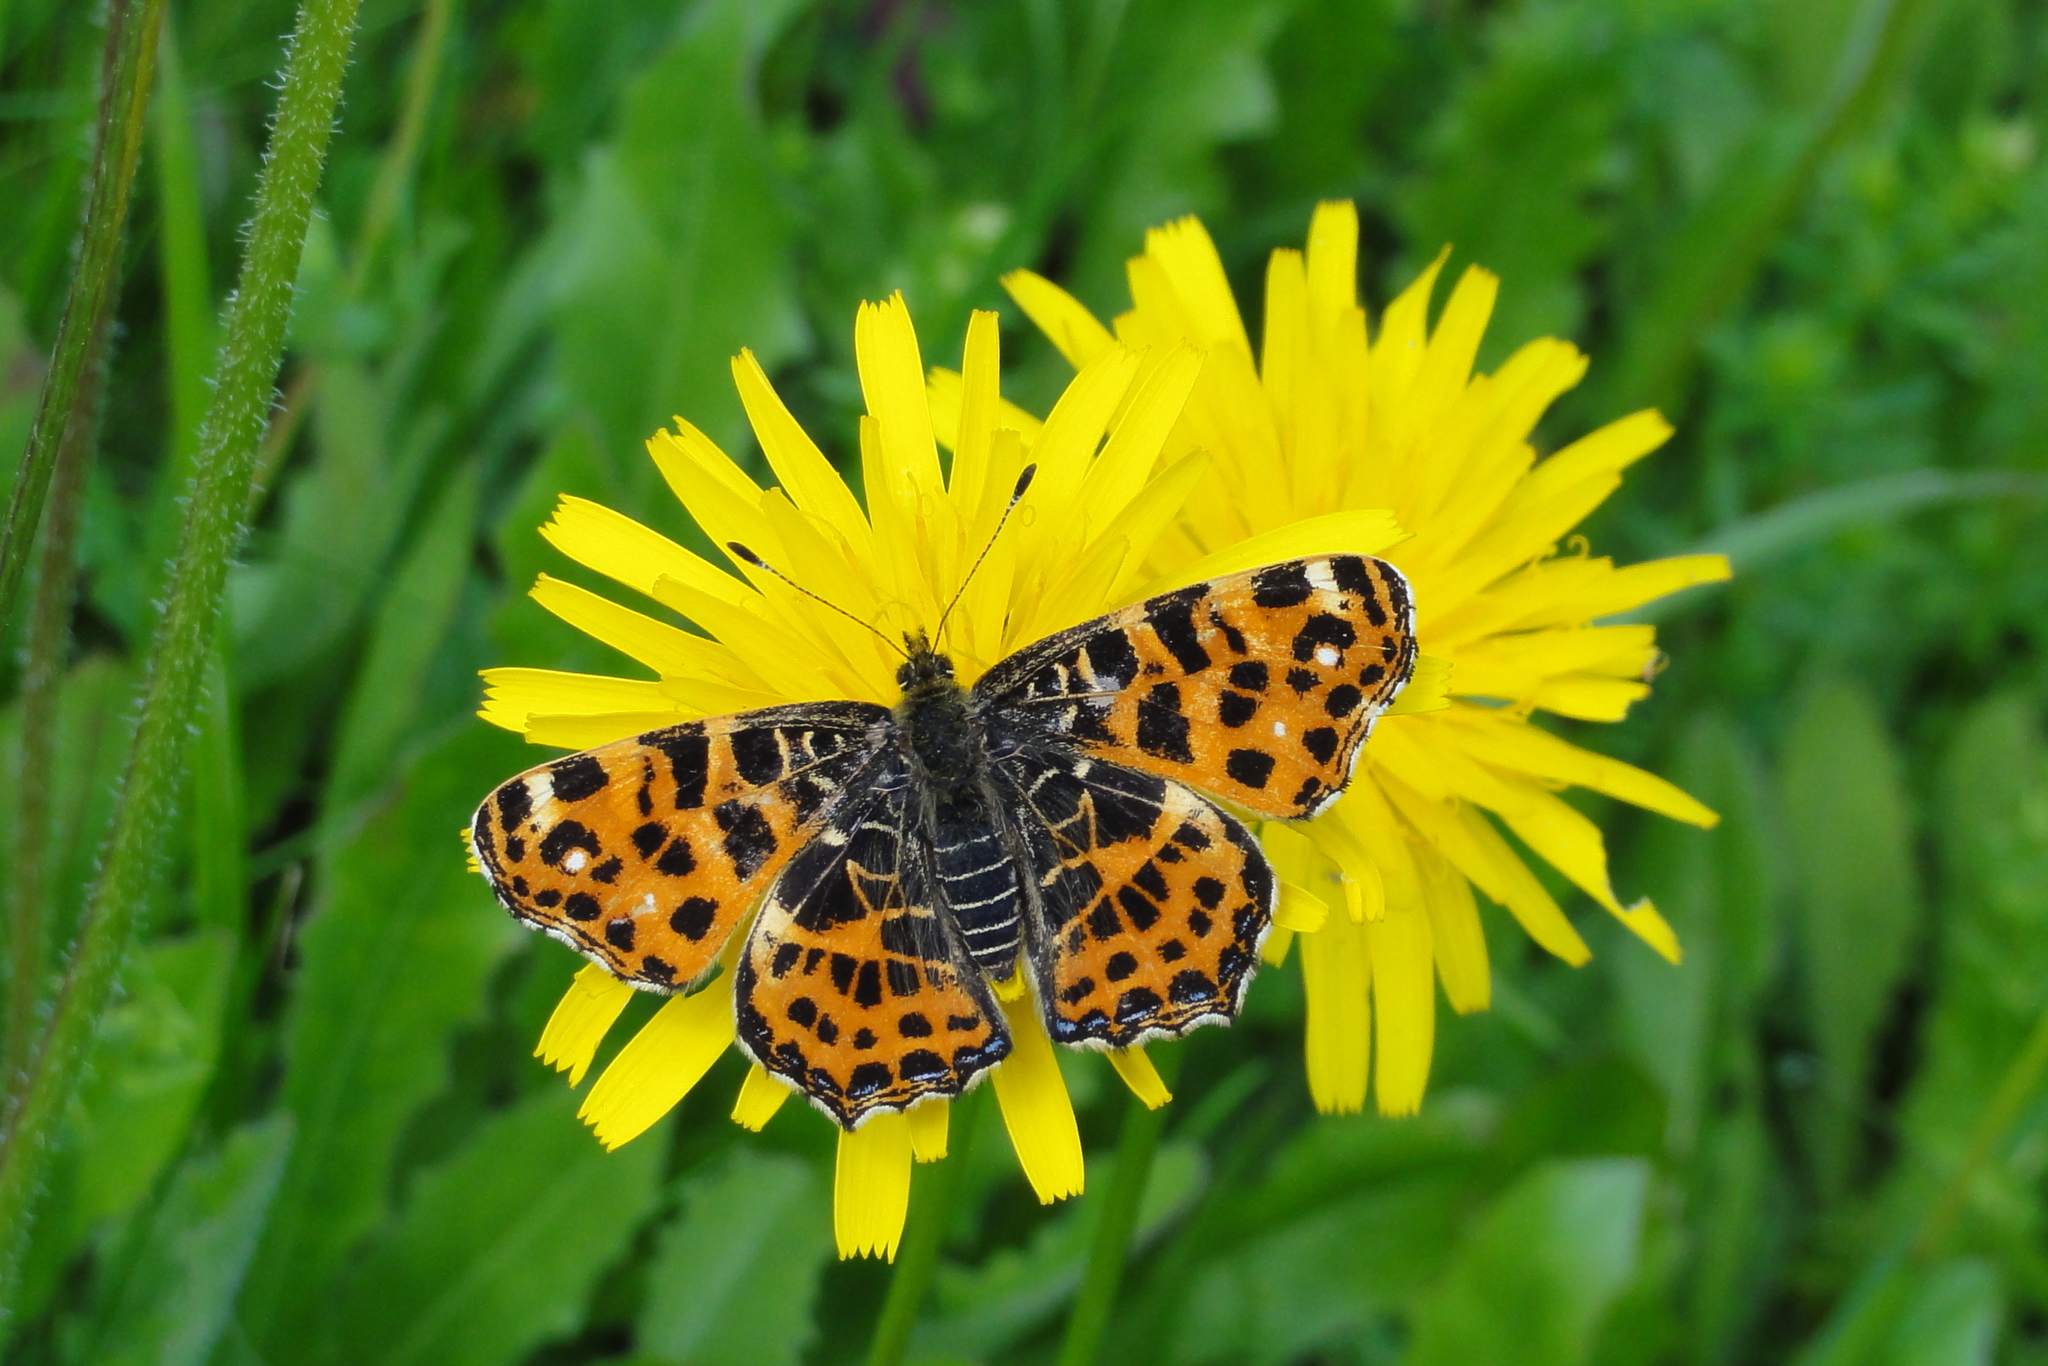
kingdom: Animalia
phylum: Arthropoda
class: Insecta
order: Lepidoptera
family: Nymphalidae
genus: Araschnia
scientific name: Araschnia levana
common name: Map butterfly
